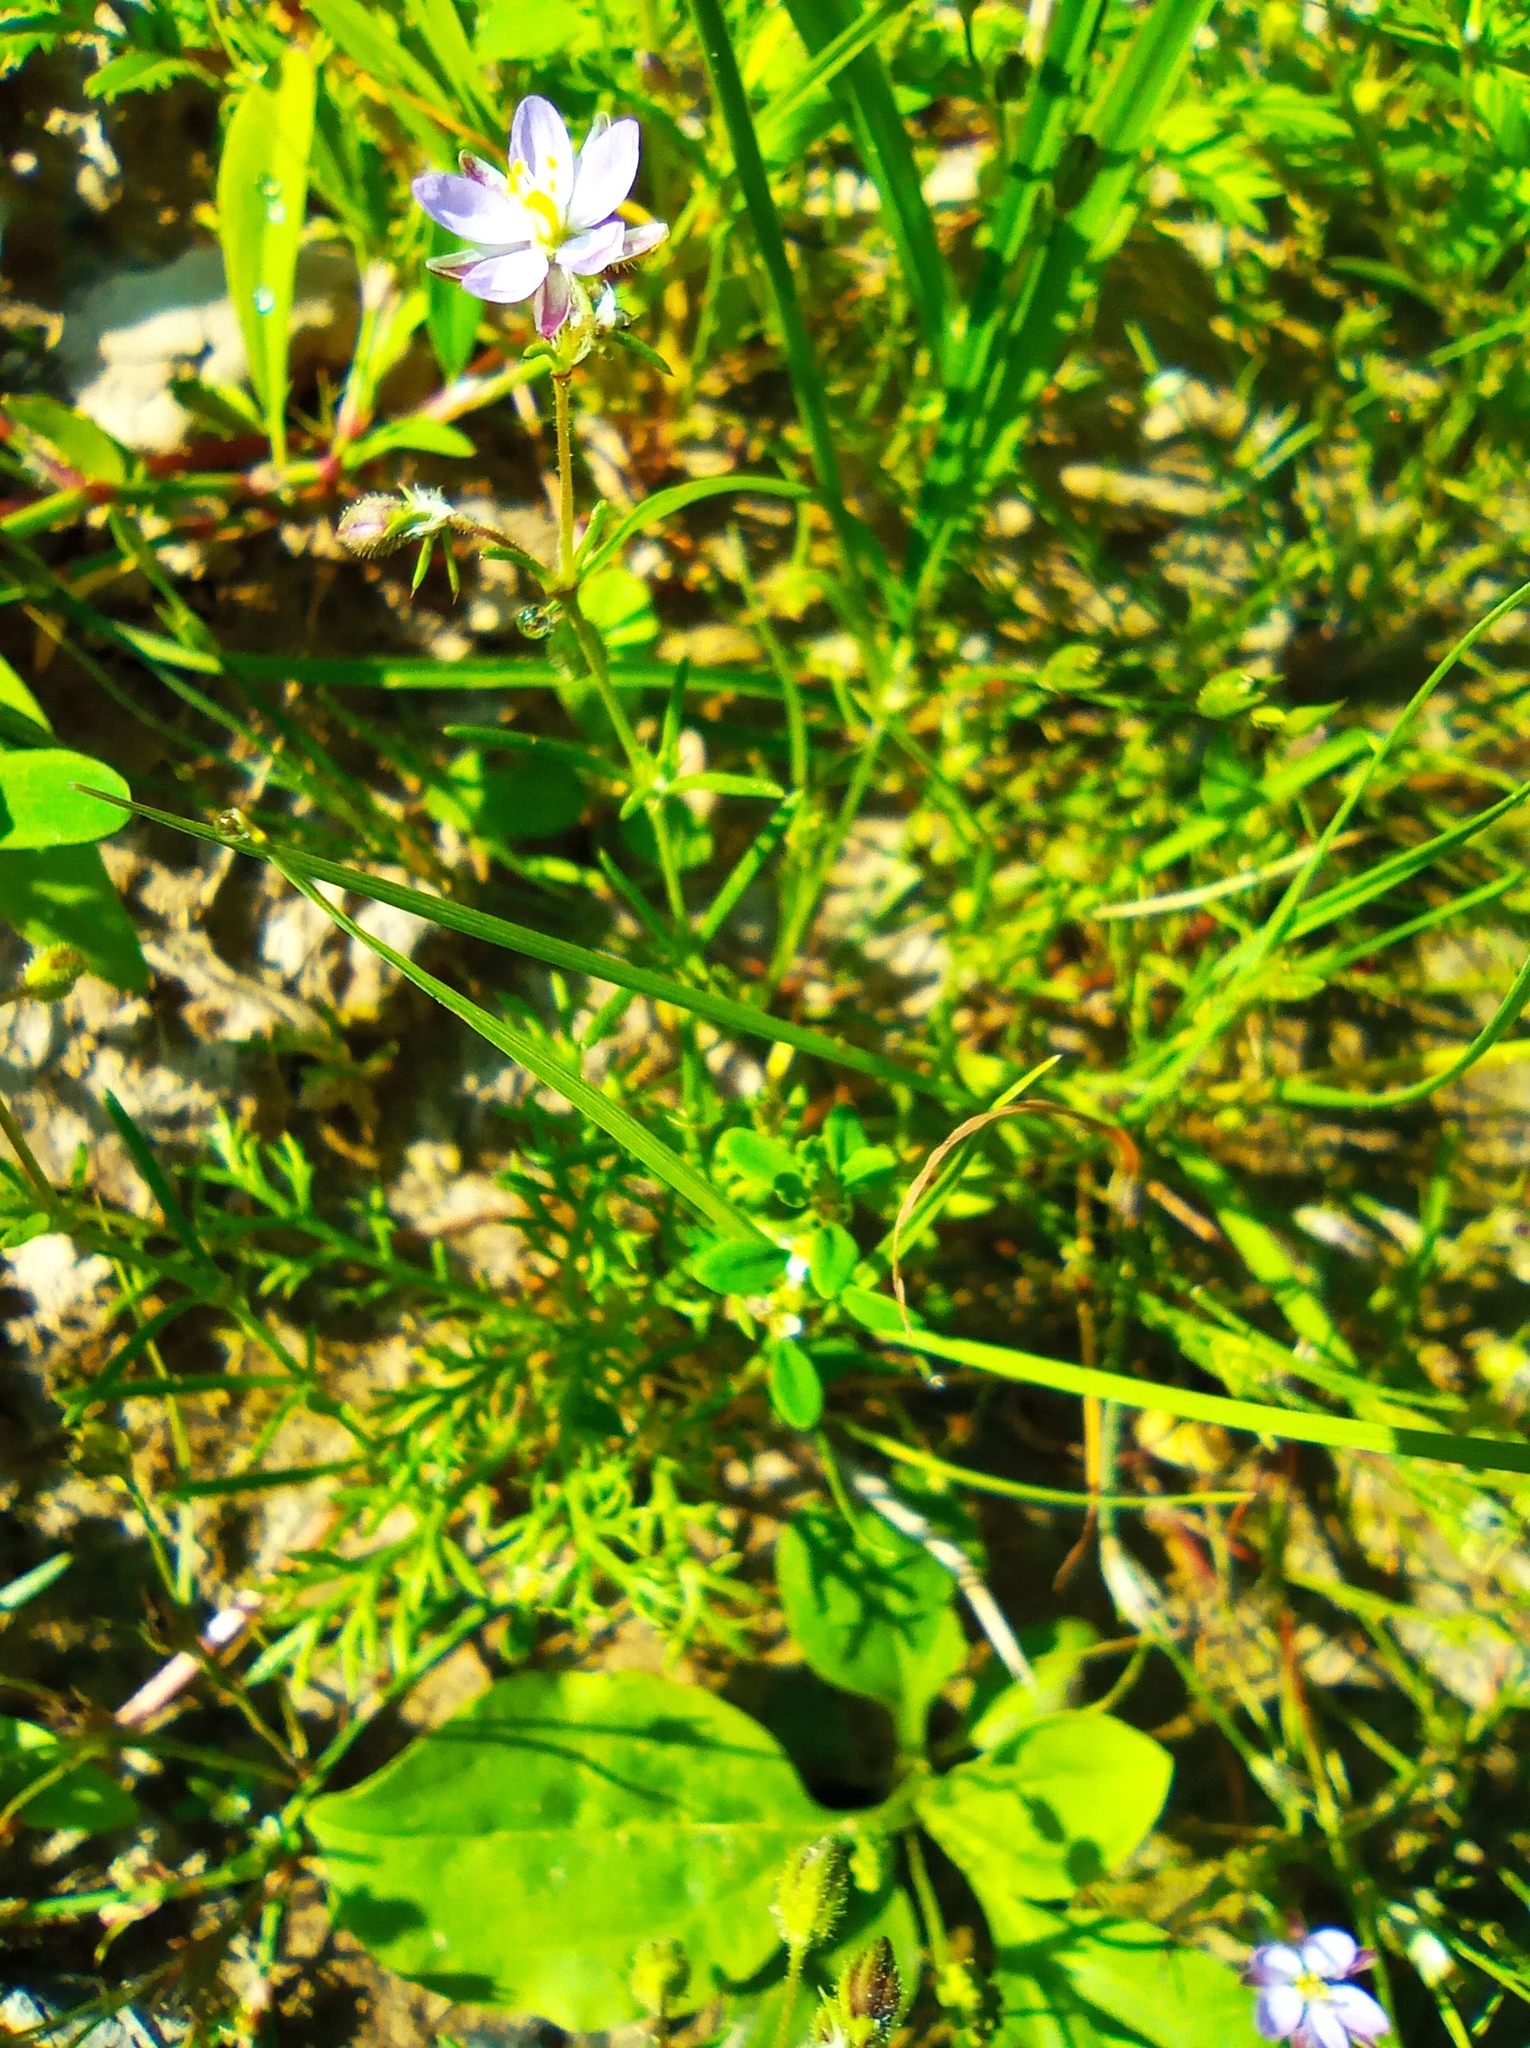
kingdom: Plantae
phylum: Tracheophyta
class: Magnoliopsida
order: Caryophyllales
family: Caryophyllaceae
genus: Spergularia
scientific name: Spergularia rubra
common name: Red sand-spurrey
